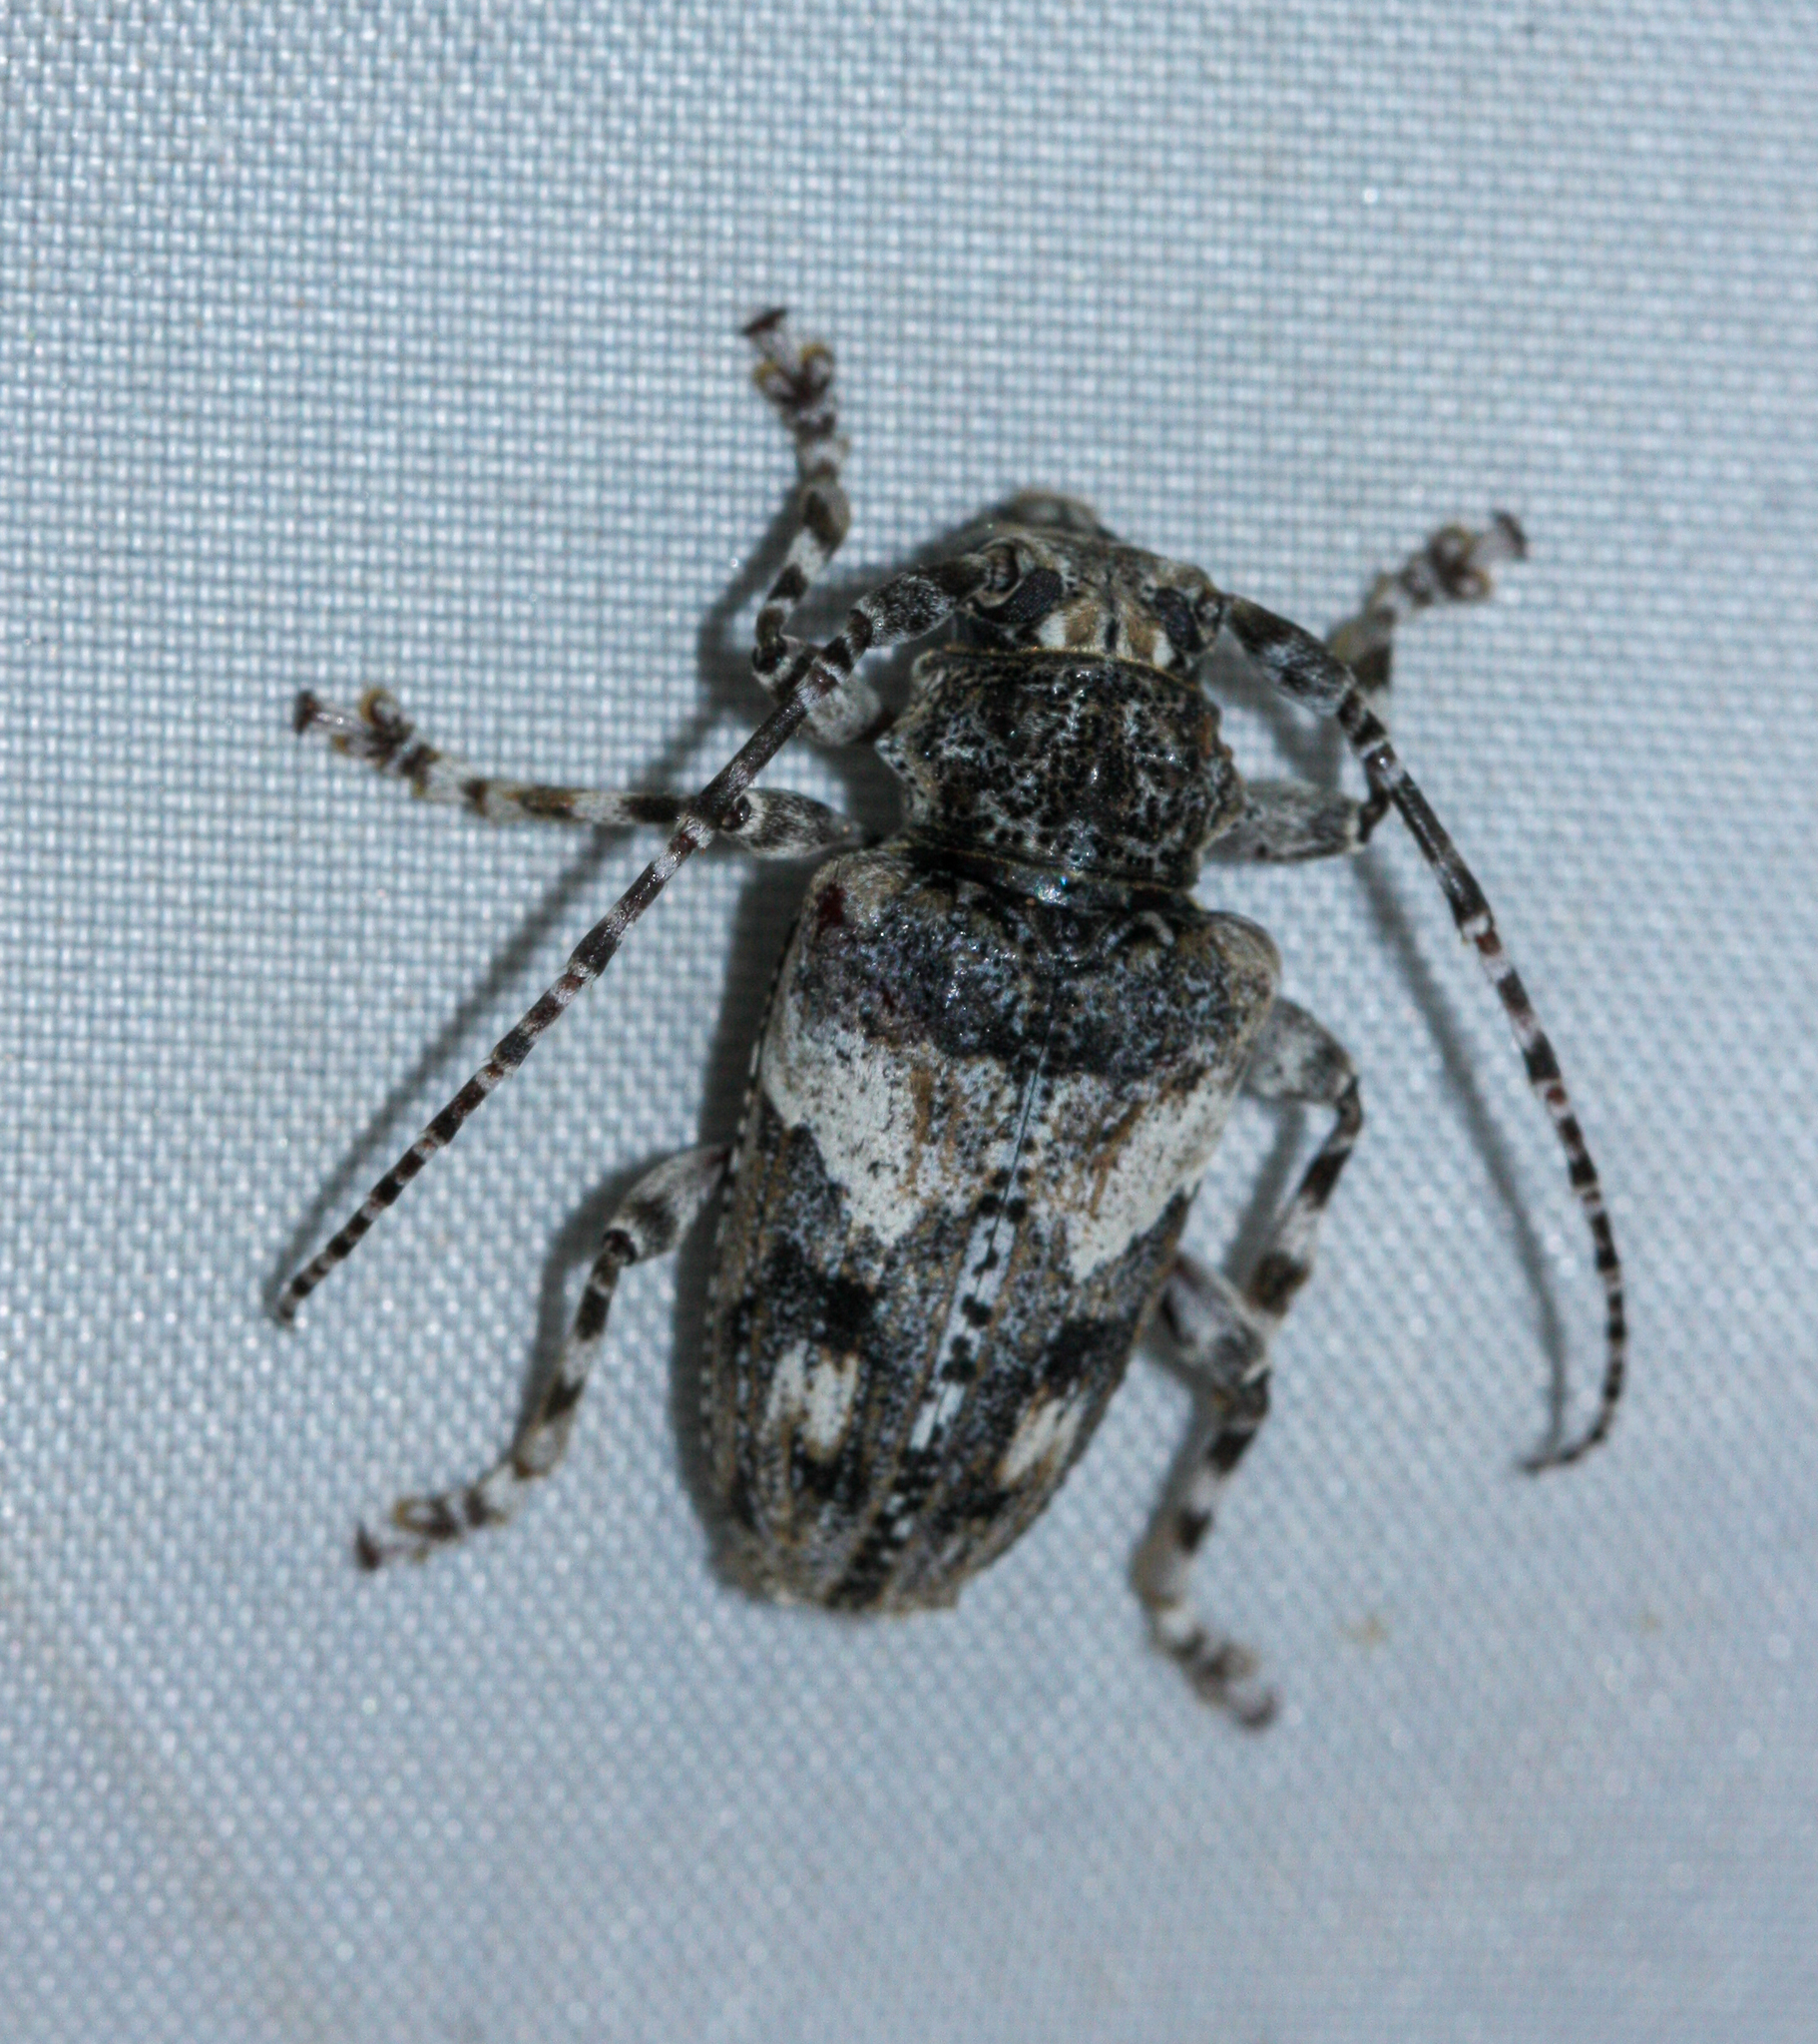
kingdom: Animalia
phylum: Arthropoda
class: Insecta
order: Coleoptera
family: Cerambycidae
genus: Aegomorphus
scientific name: Aegomorphus arizonicus
